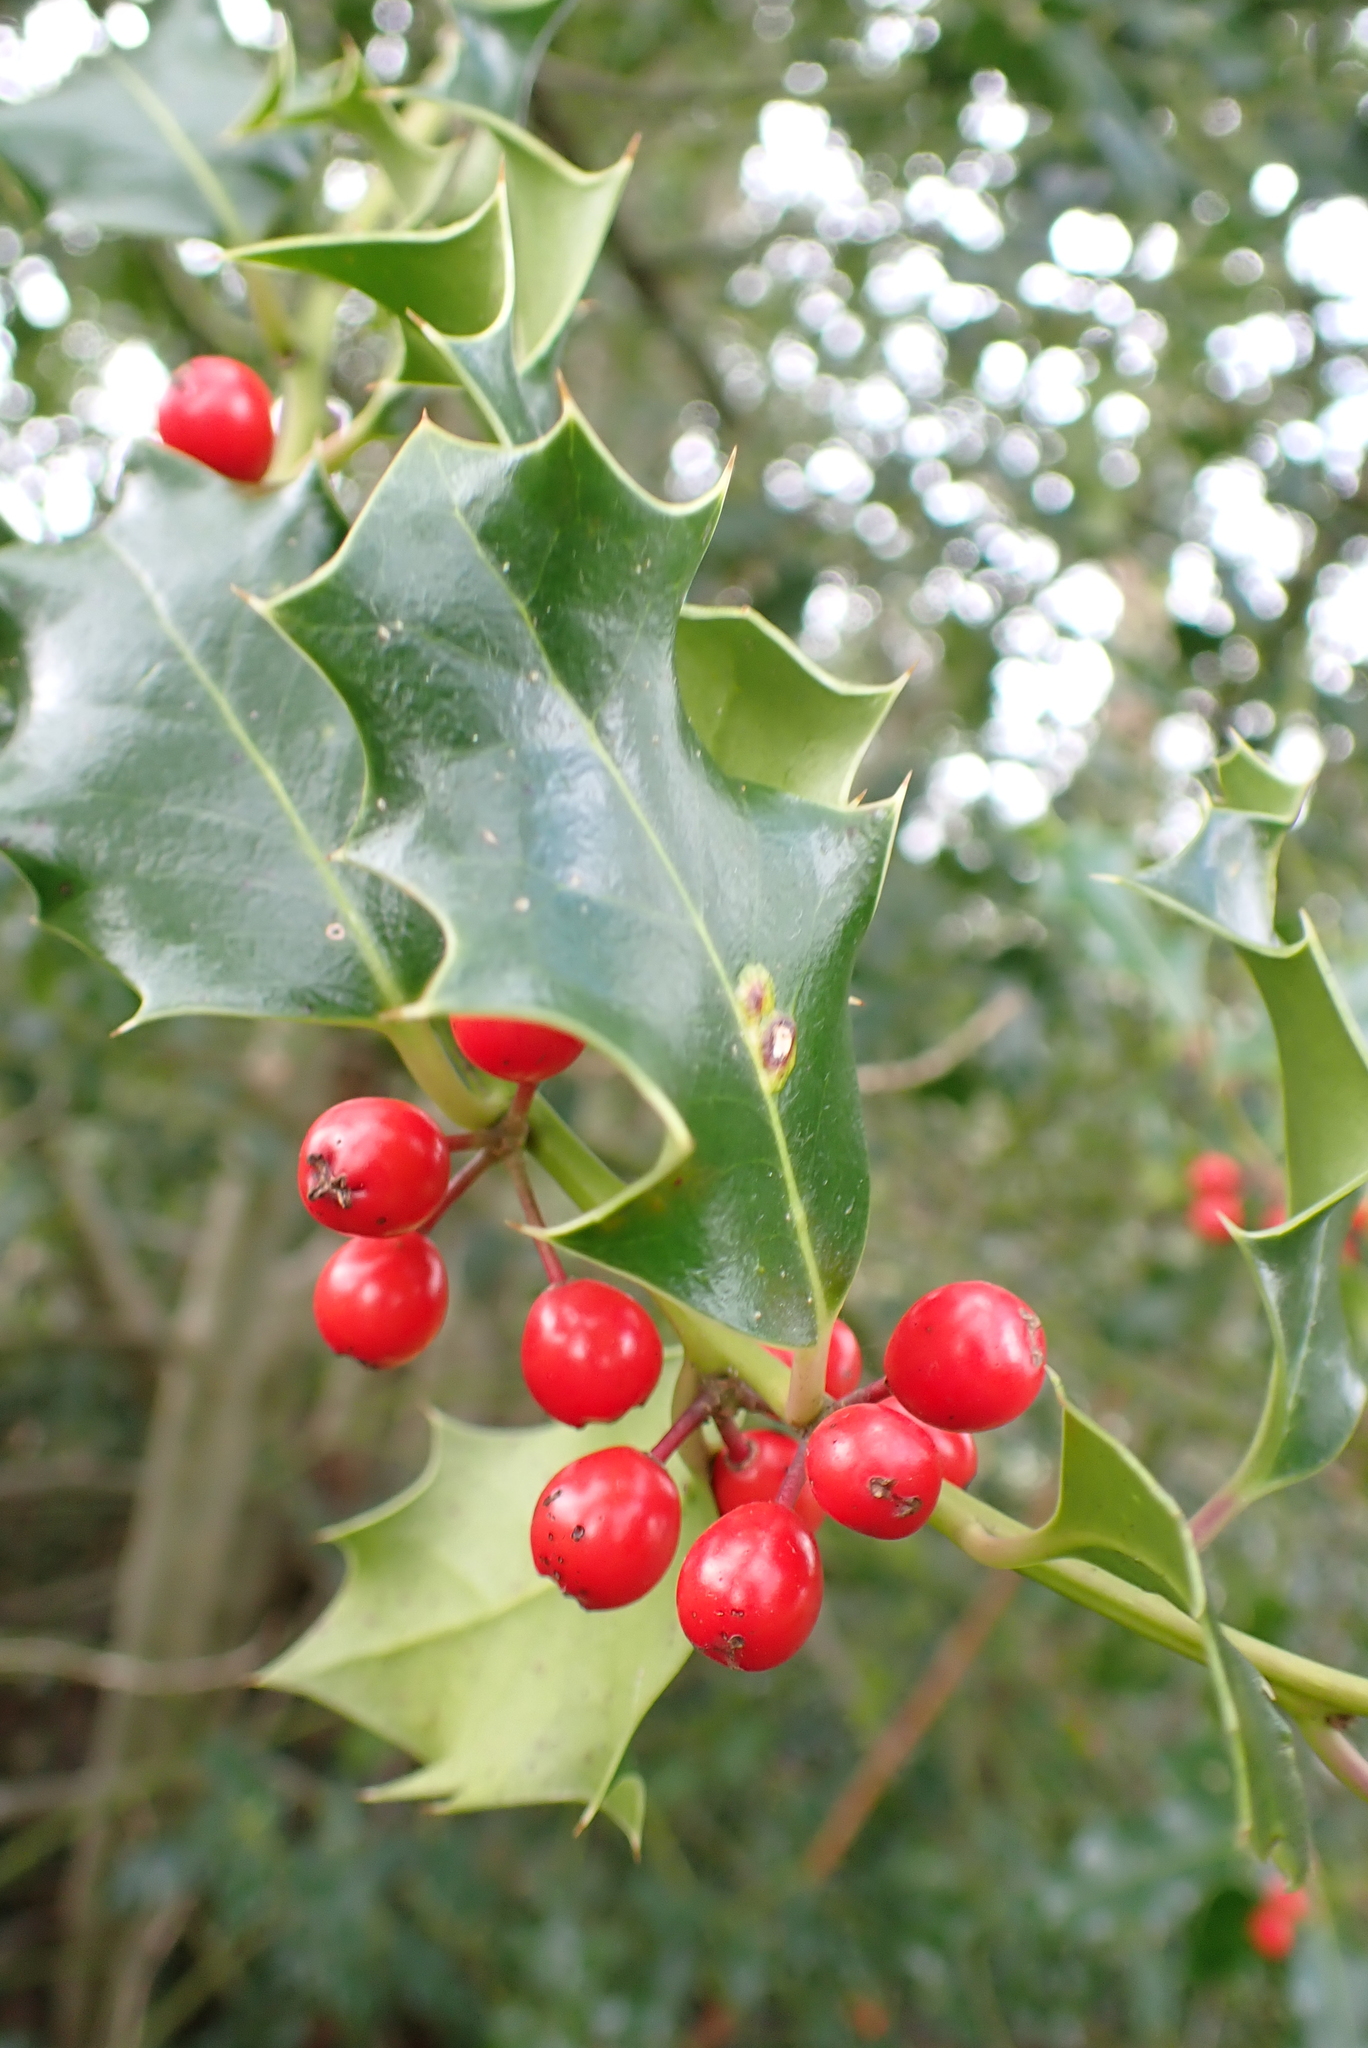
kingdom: Plantae
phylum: Tracheophyta
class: Magnoliopsida
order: Aquifoliales
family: Aquifoliaceae
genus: Ilex
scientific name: Ilex aquifolium
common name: English holly
